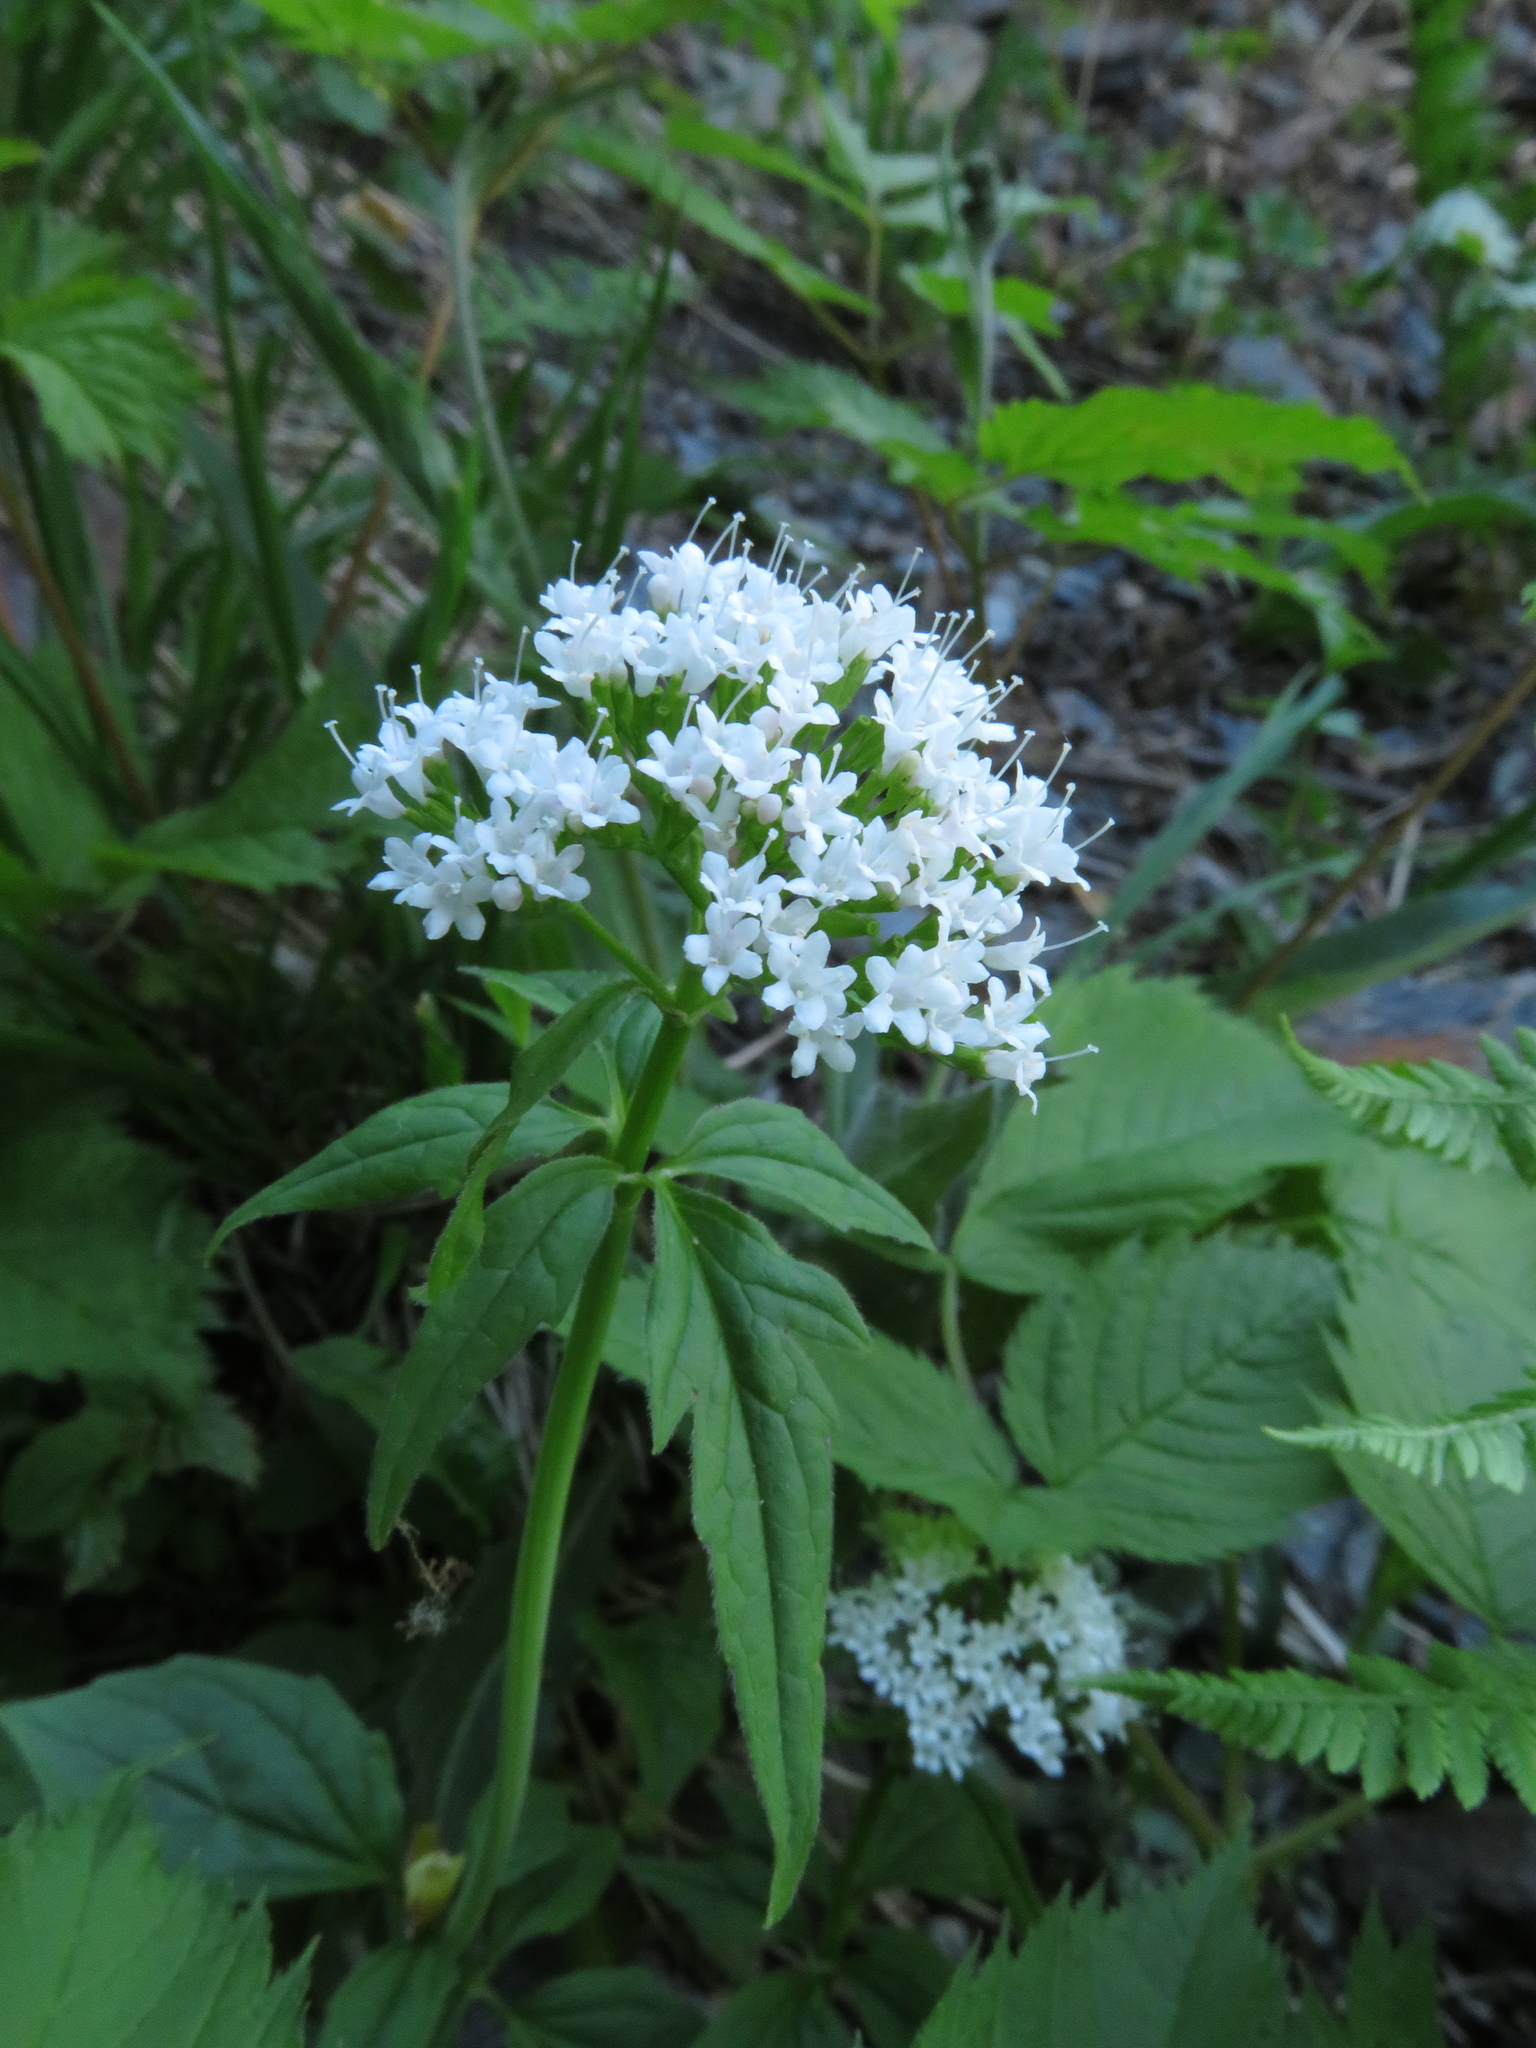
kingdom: Plantae
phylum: Tracheophyta
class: Magnoliopsida
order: Dipsacales
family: Caprifoliaceae
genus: Valeriana
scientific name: Valeriana tripteris
